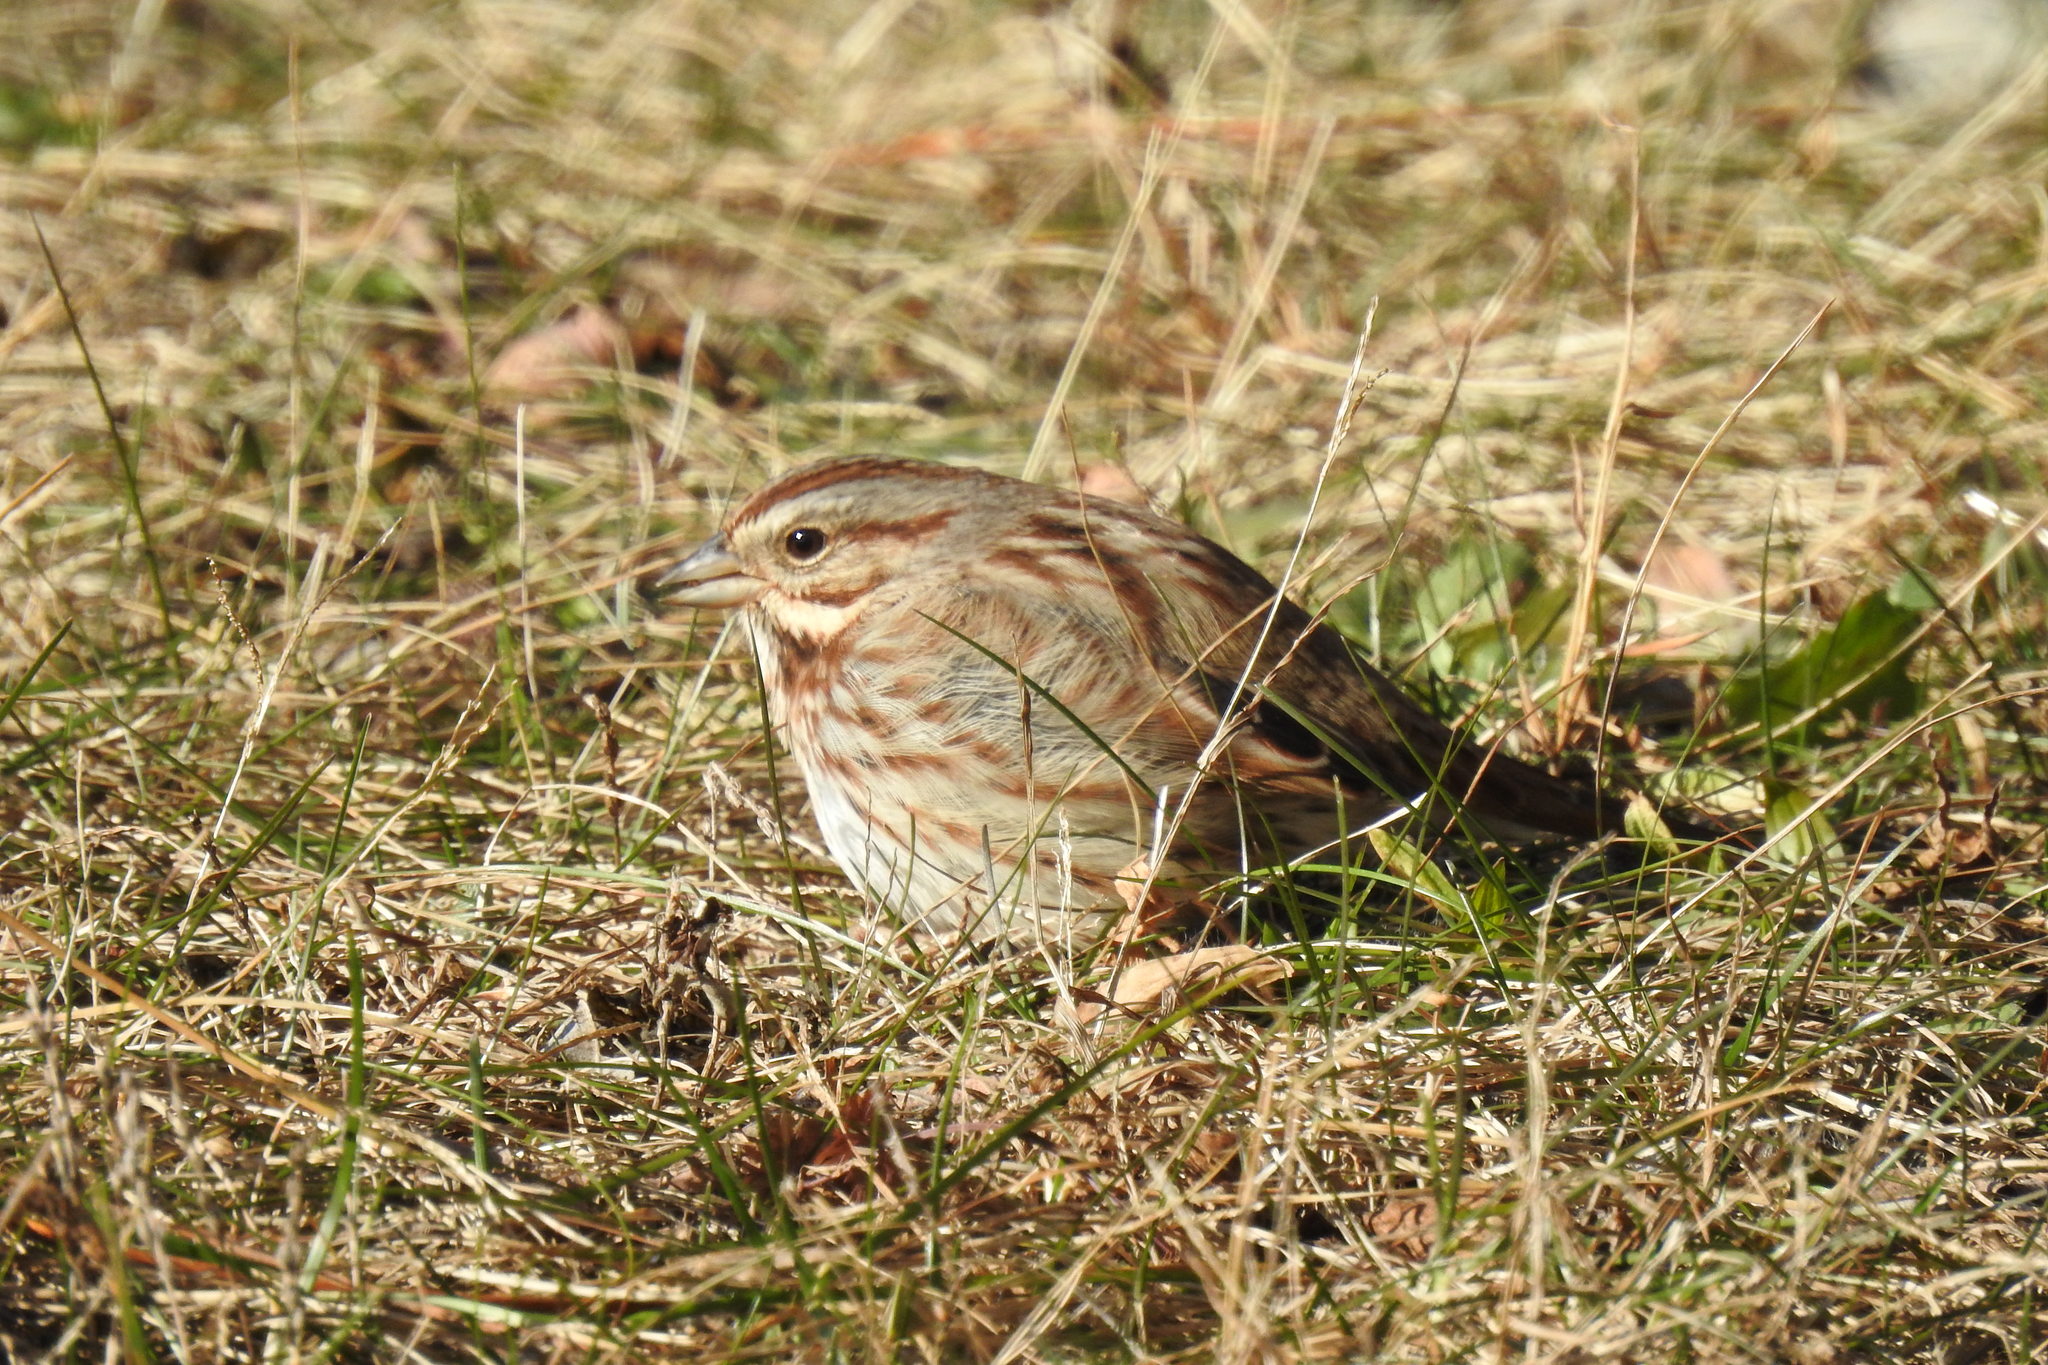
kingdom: Animalia
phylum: Chordata
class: Aves
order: Passeriformes
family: Passerellidae
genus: Melospiza
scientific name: Melospiza melodia
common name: Song sparrow
